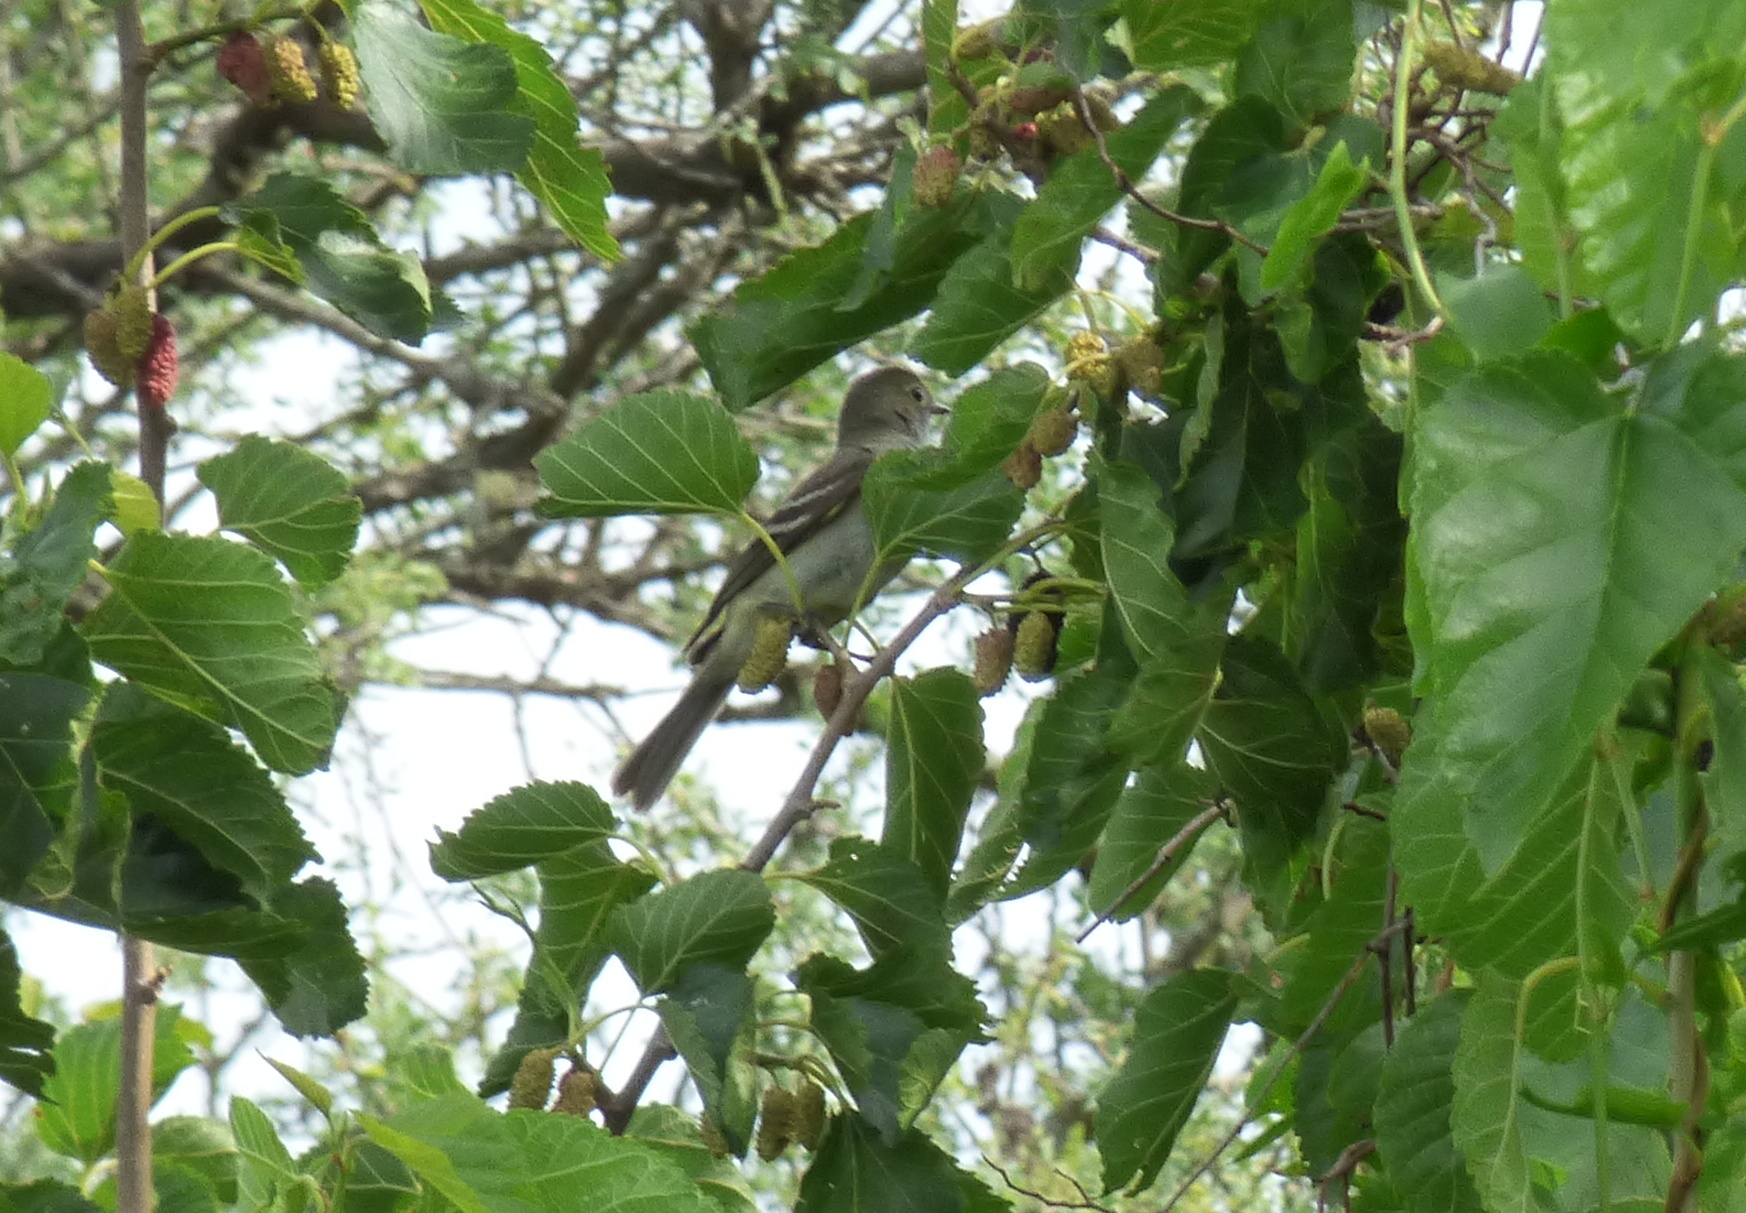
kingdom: Animalia
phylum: Chordata
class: Aves
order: Passeriformes
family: Tyrannidae
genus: Elaenia
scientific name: Elaenia parvirostris
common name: Small-billed elaenia
